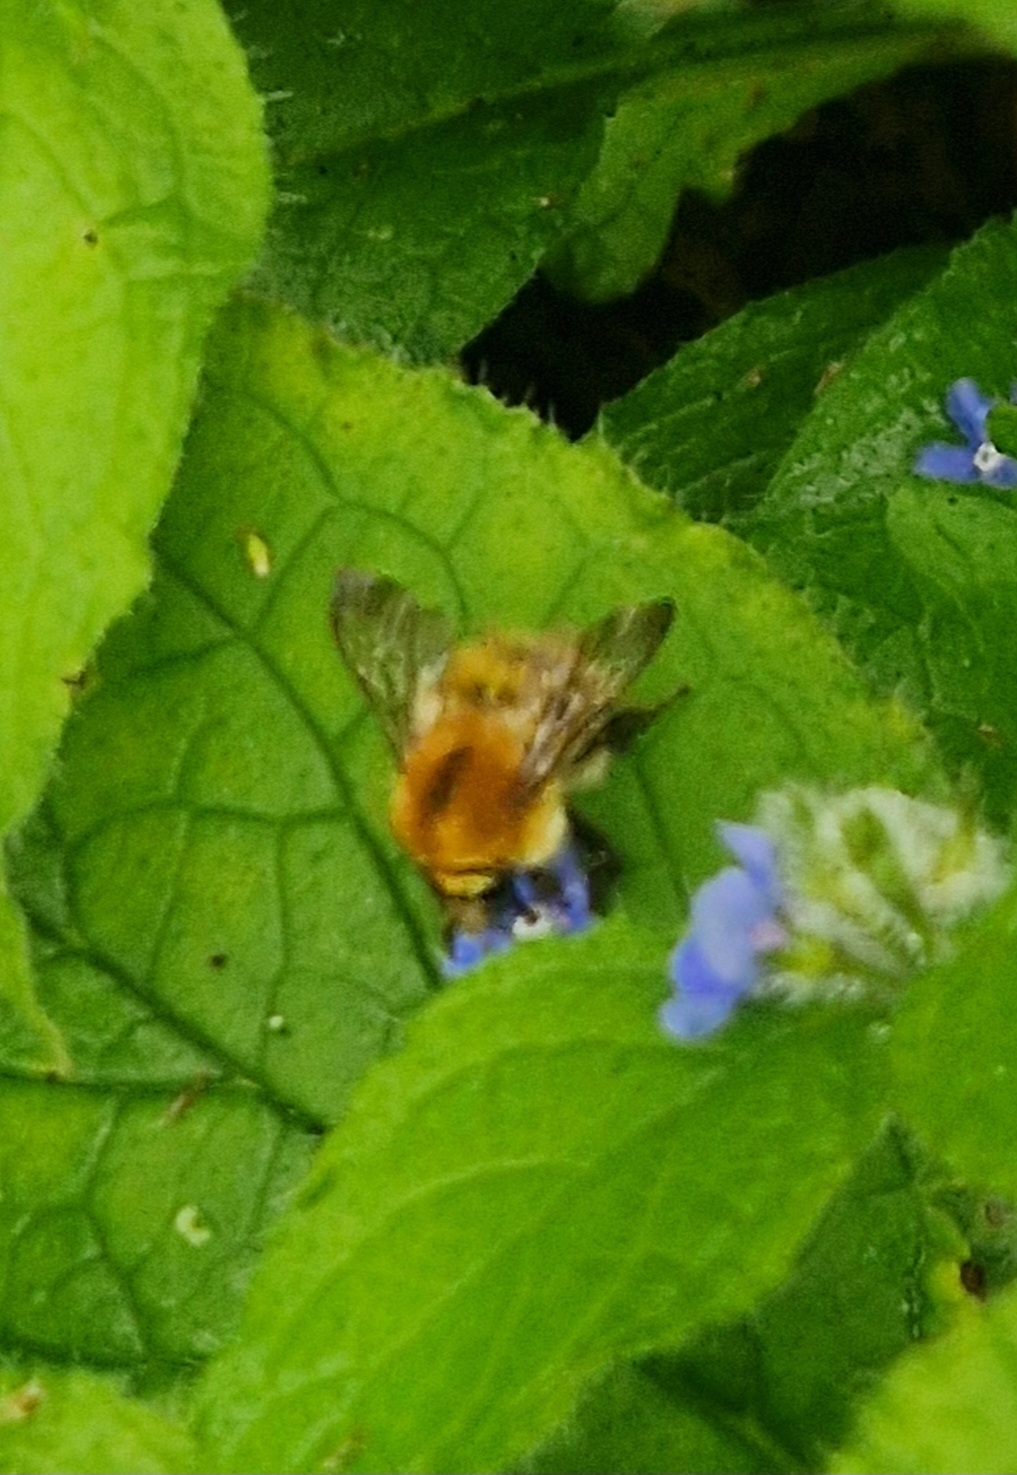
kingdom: Animalia
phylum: Arthropoda
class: Insecta
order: Hymenoptera
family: Apidae
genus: Bombus
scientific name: Bombus pascuorum
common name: Common carder bee
